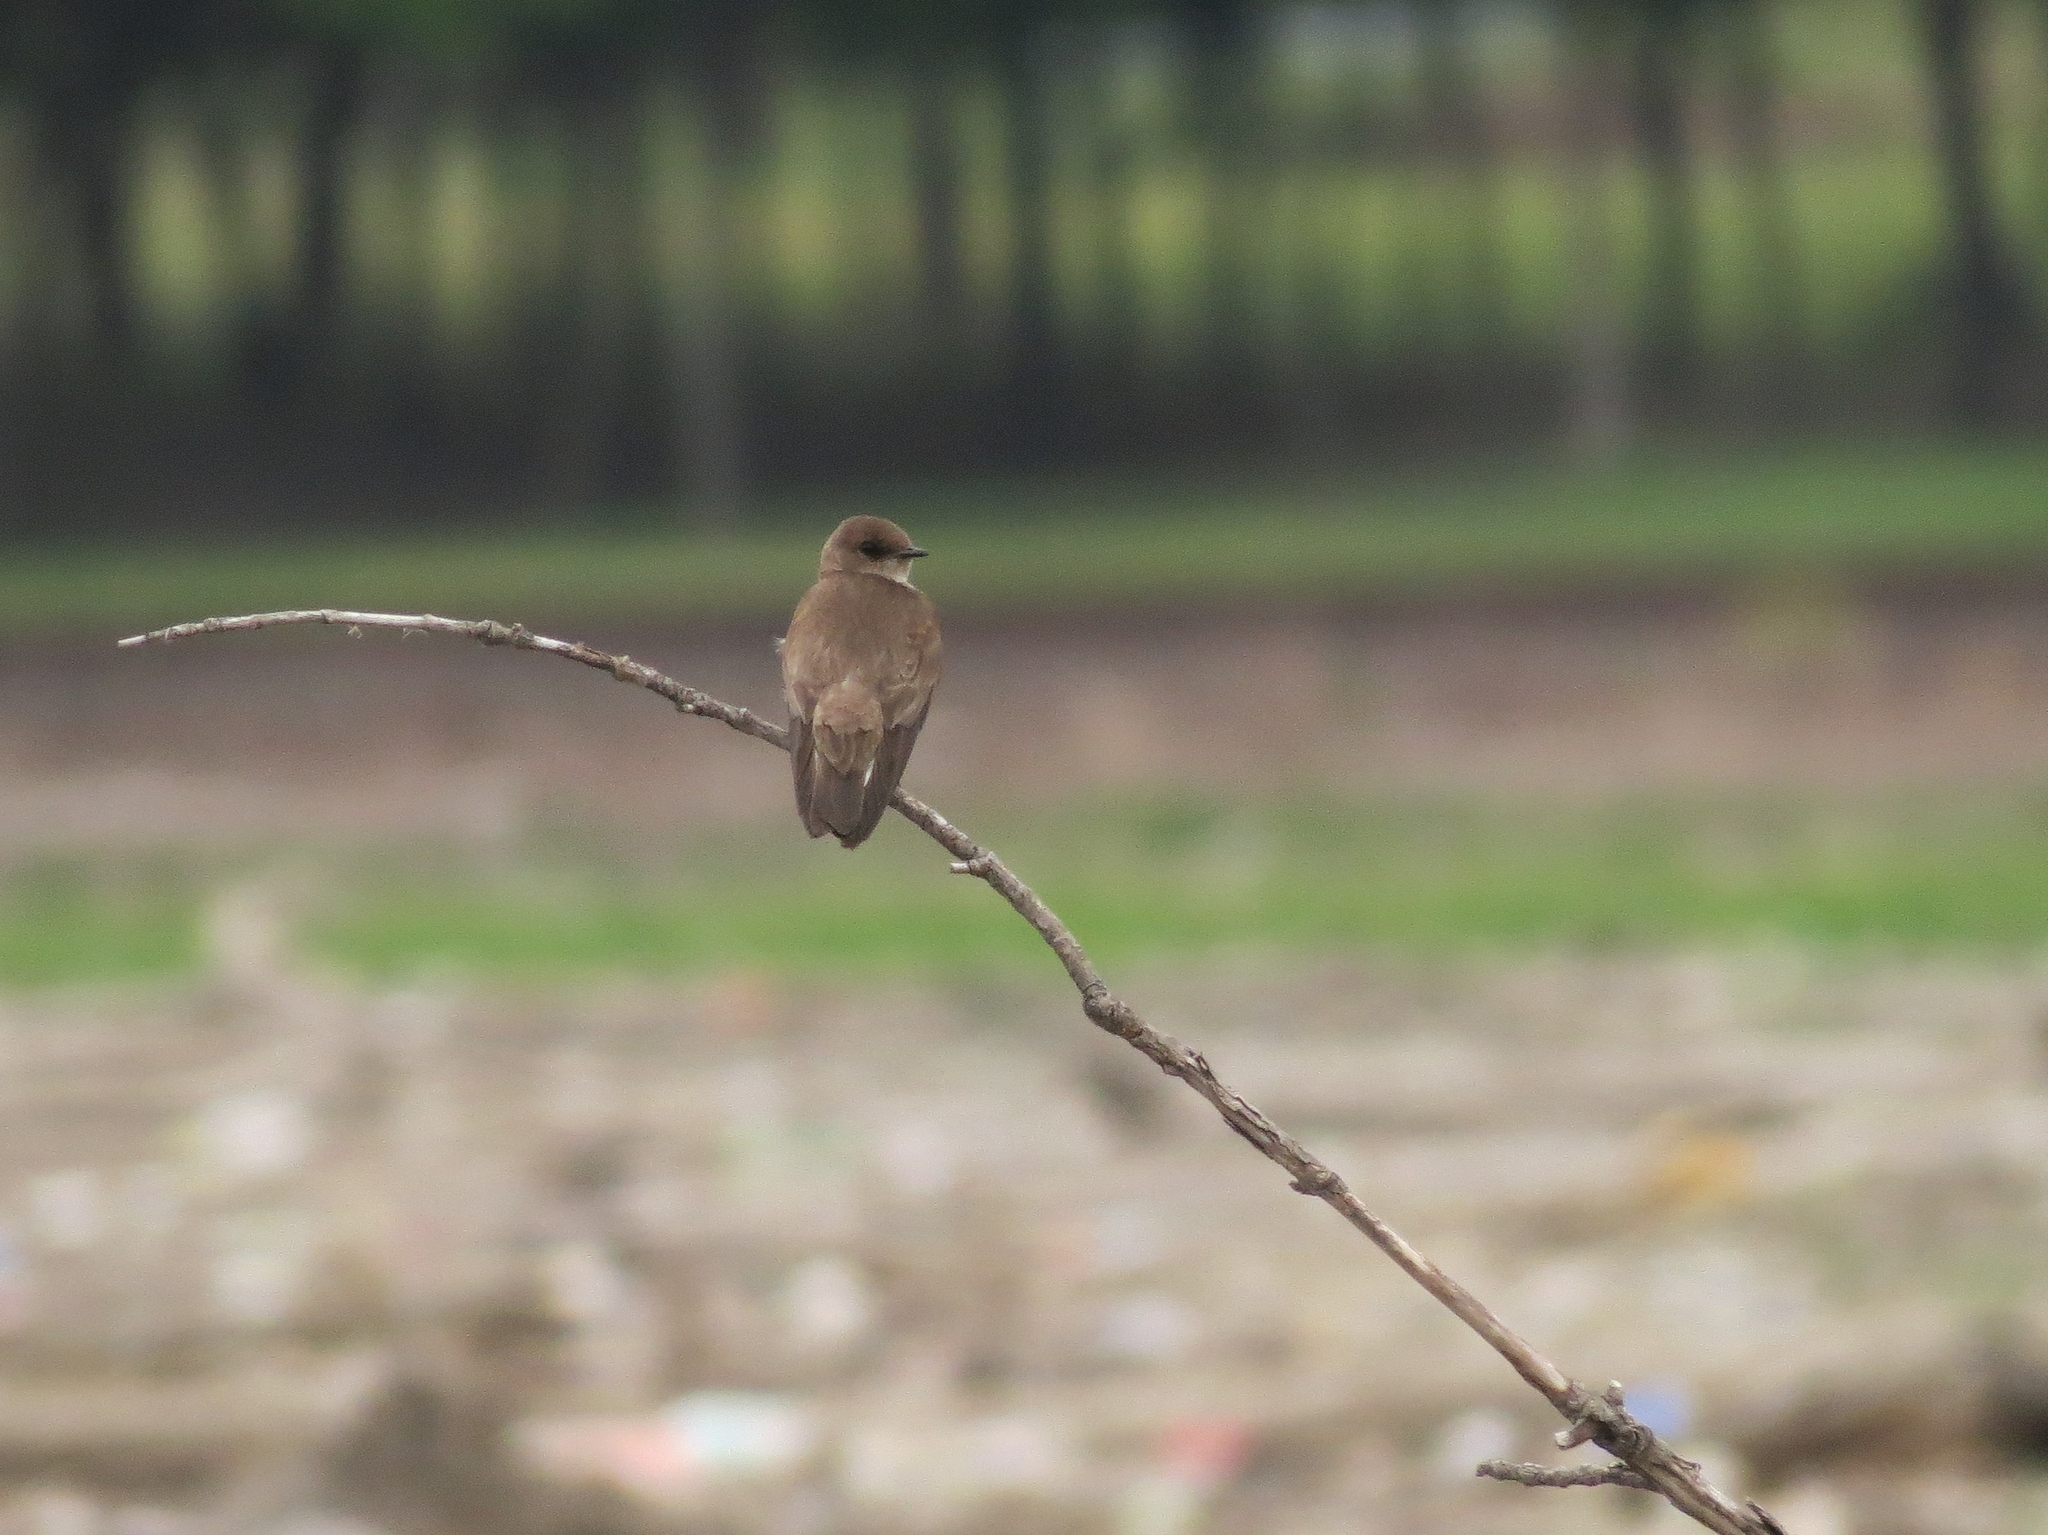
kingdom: Animalia
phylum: Chordata
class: Aves
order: Passeriformes
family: Hirundinidae
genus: Stelgidopteryx
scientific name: Stelgidopteryx serripennis
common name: Northern rough-winged swallow
